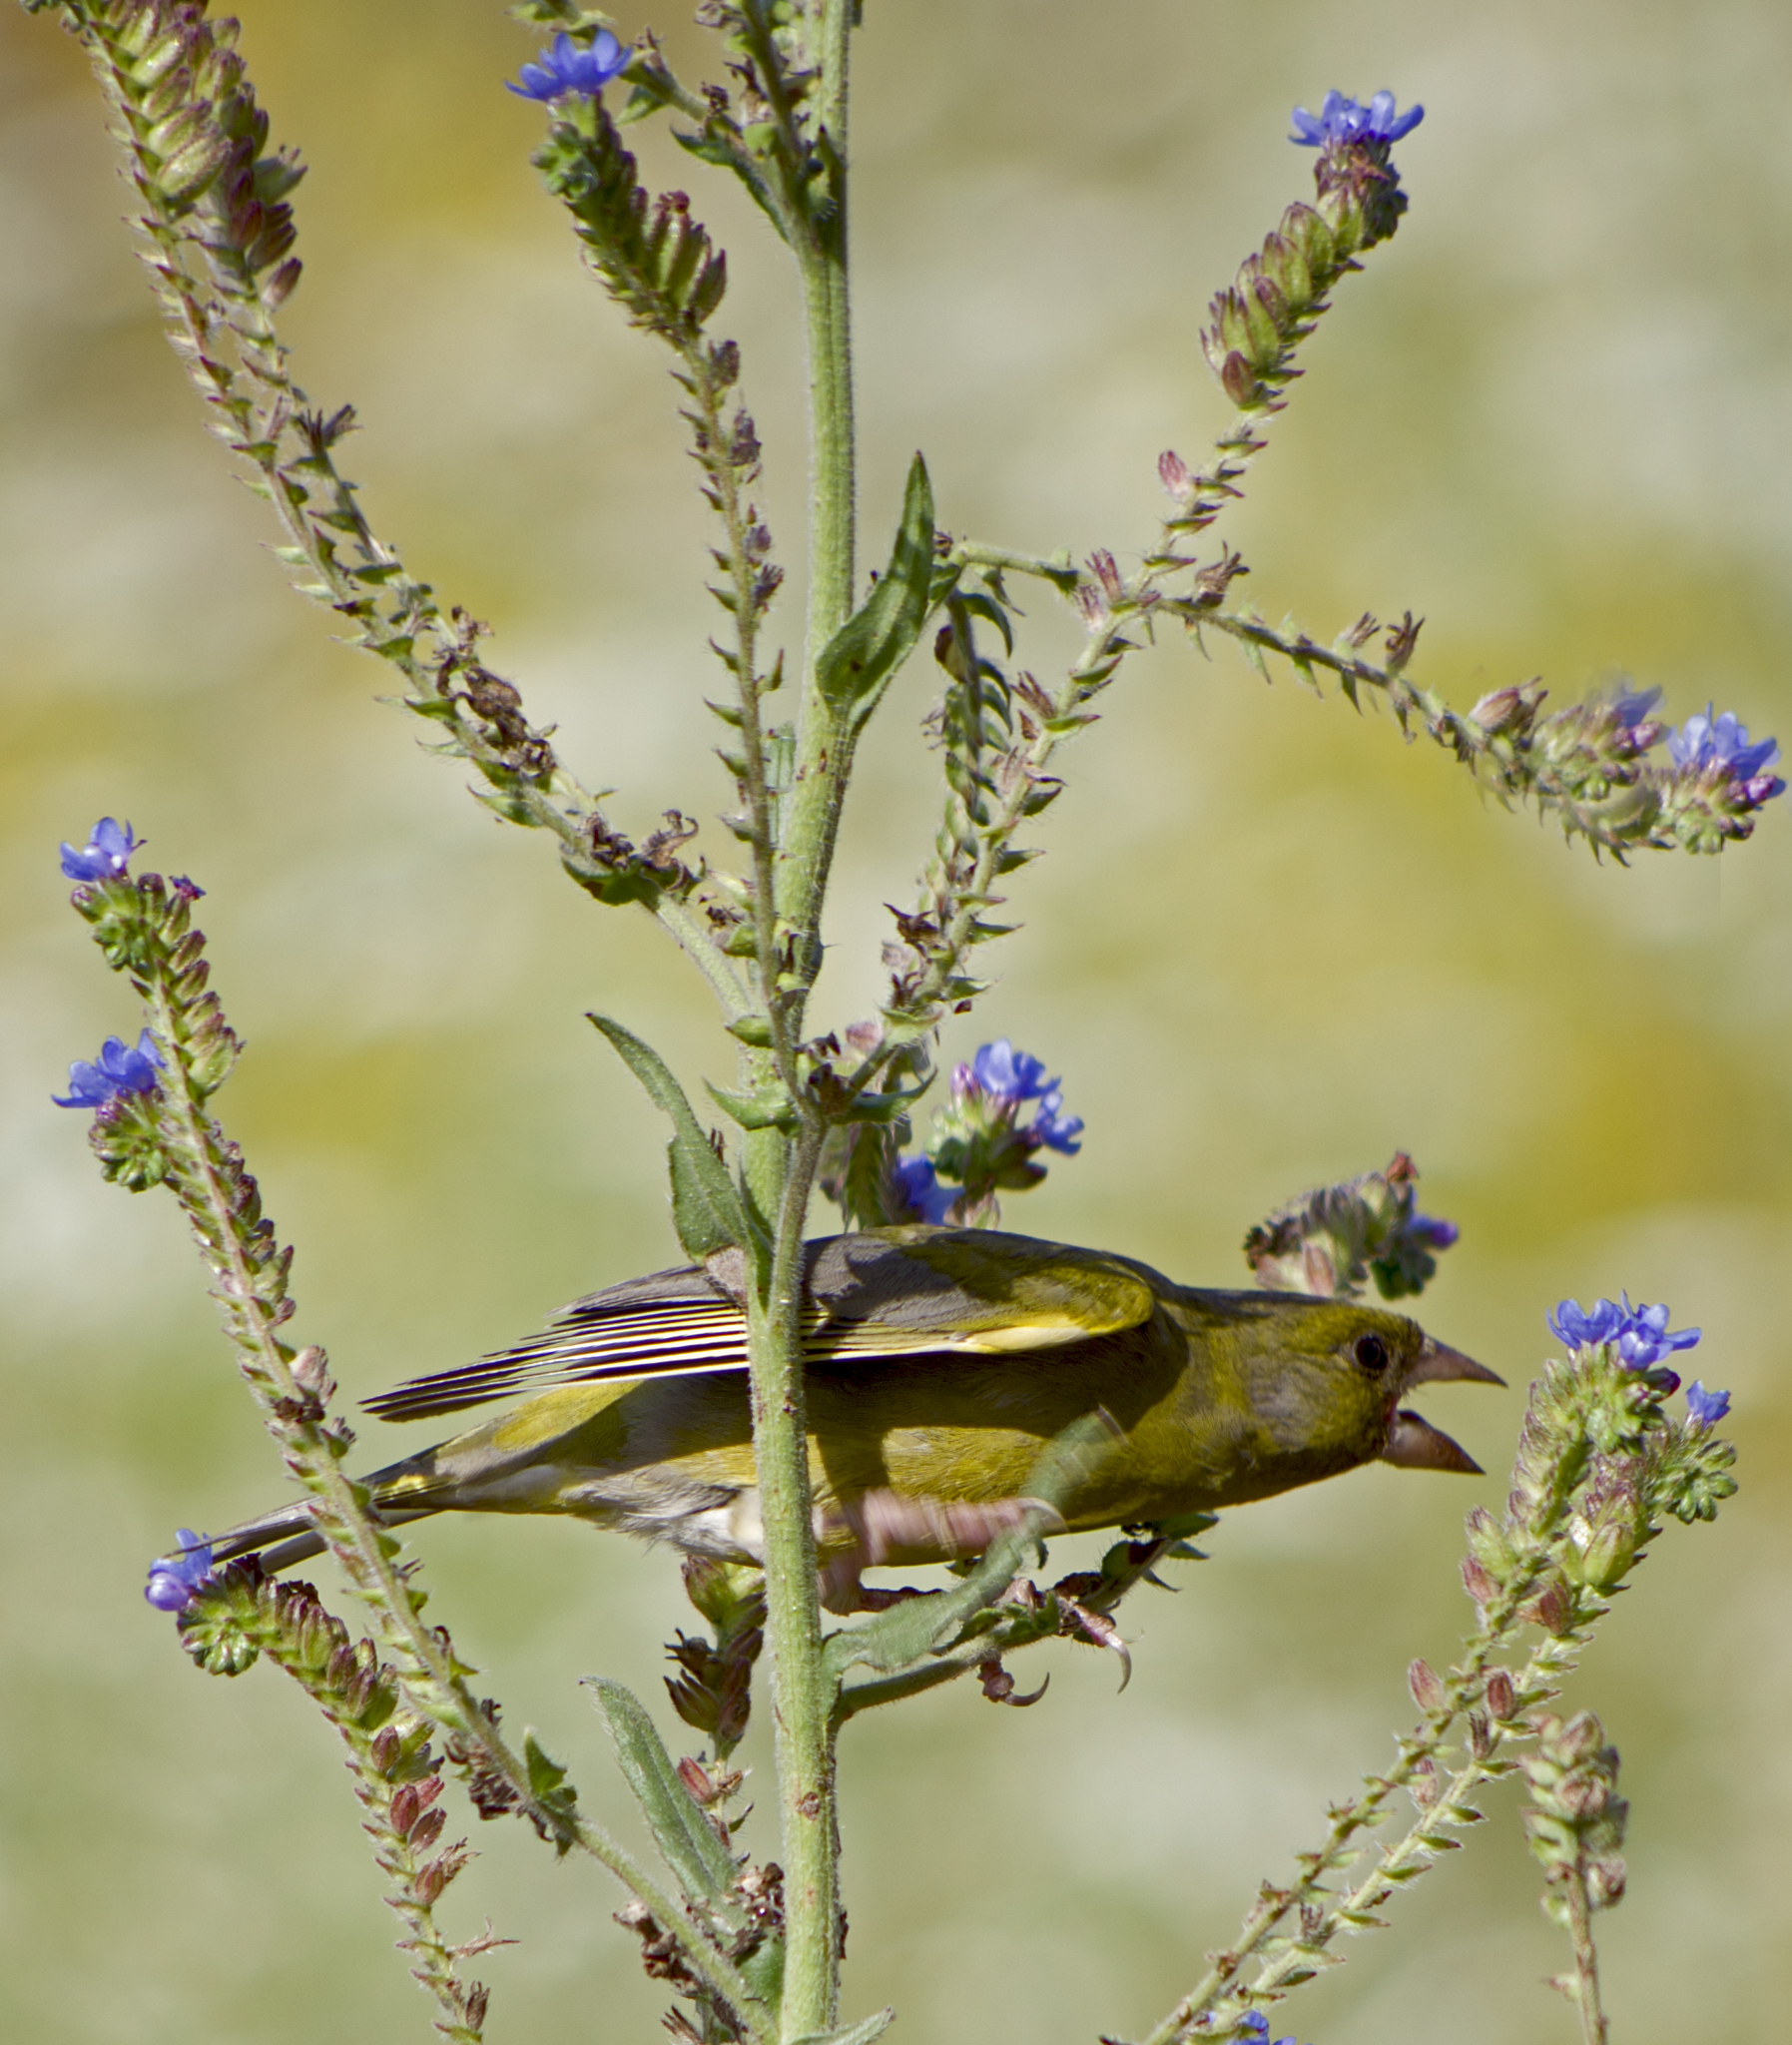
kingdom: Plantae
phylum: Tracheophyta
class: Liliopsida
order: Poales
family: Poaceae
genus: Chloris
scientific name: Chloris chloris
